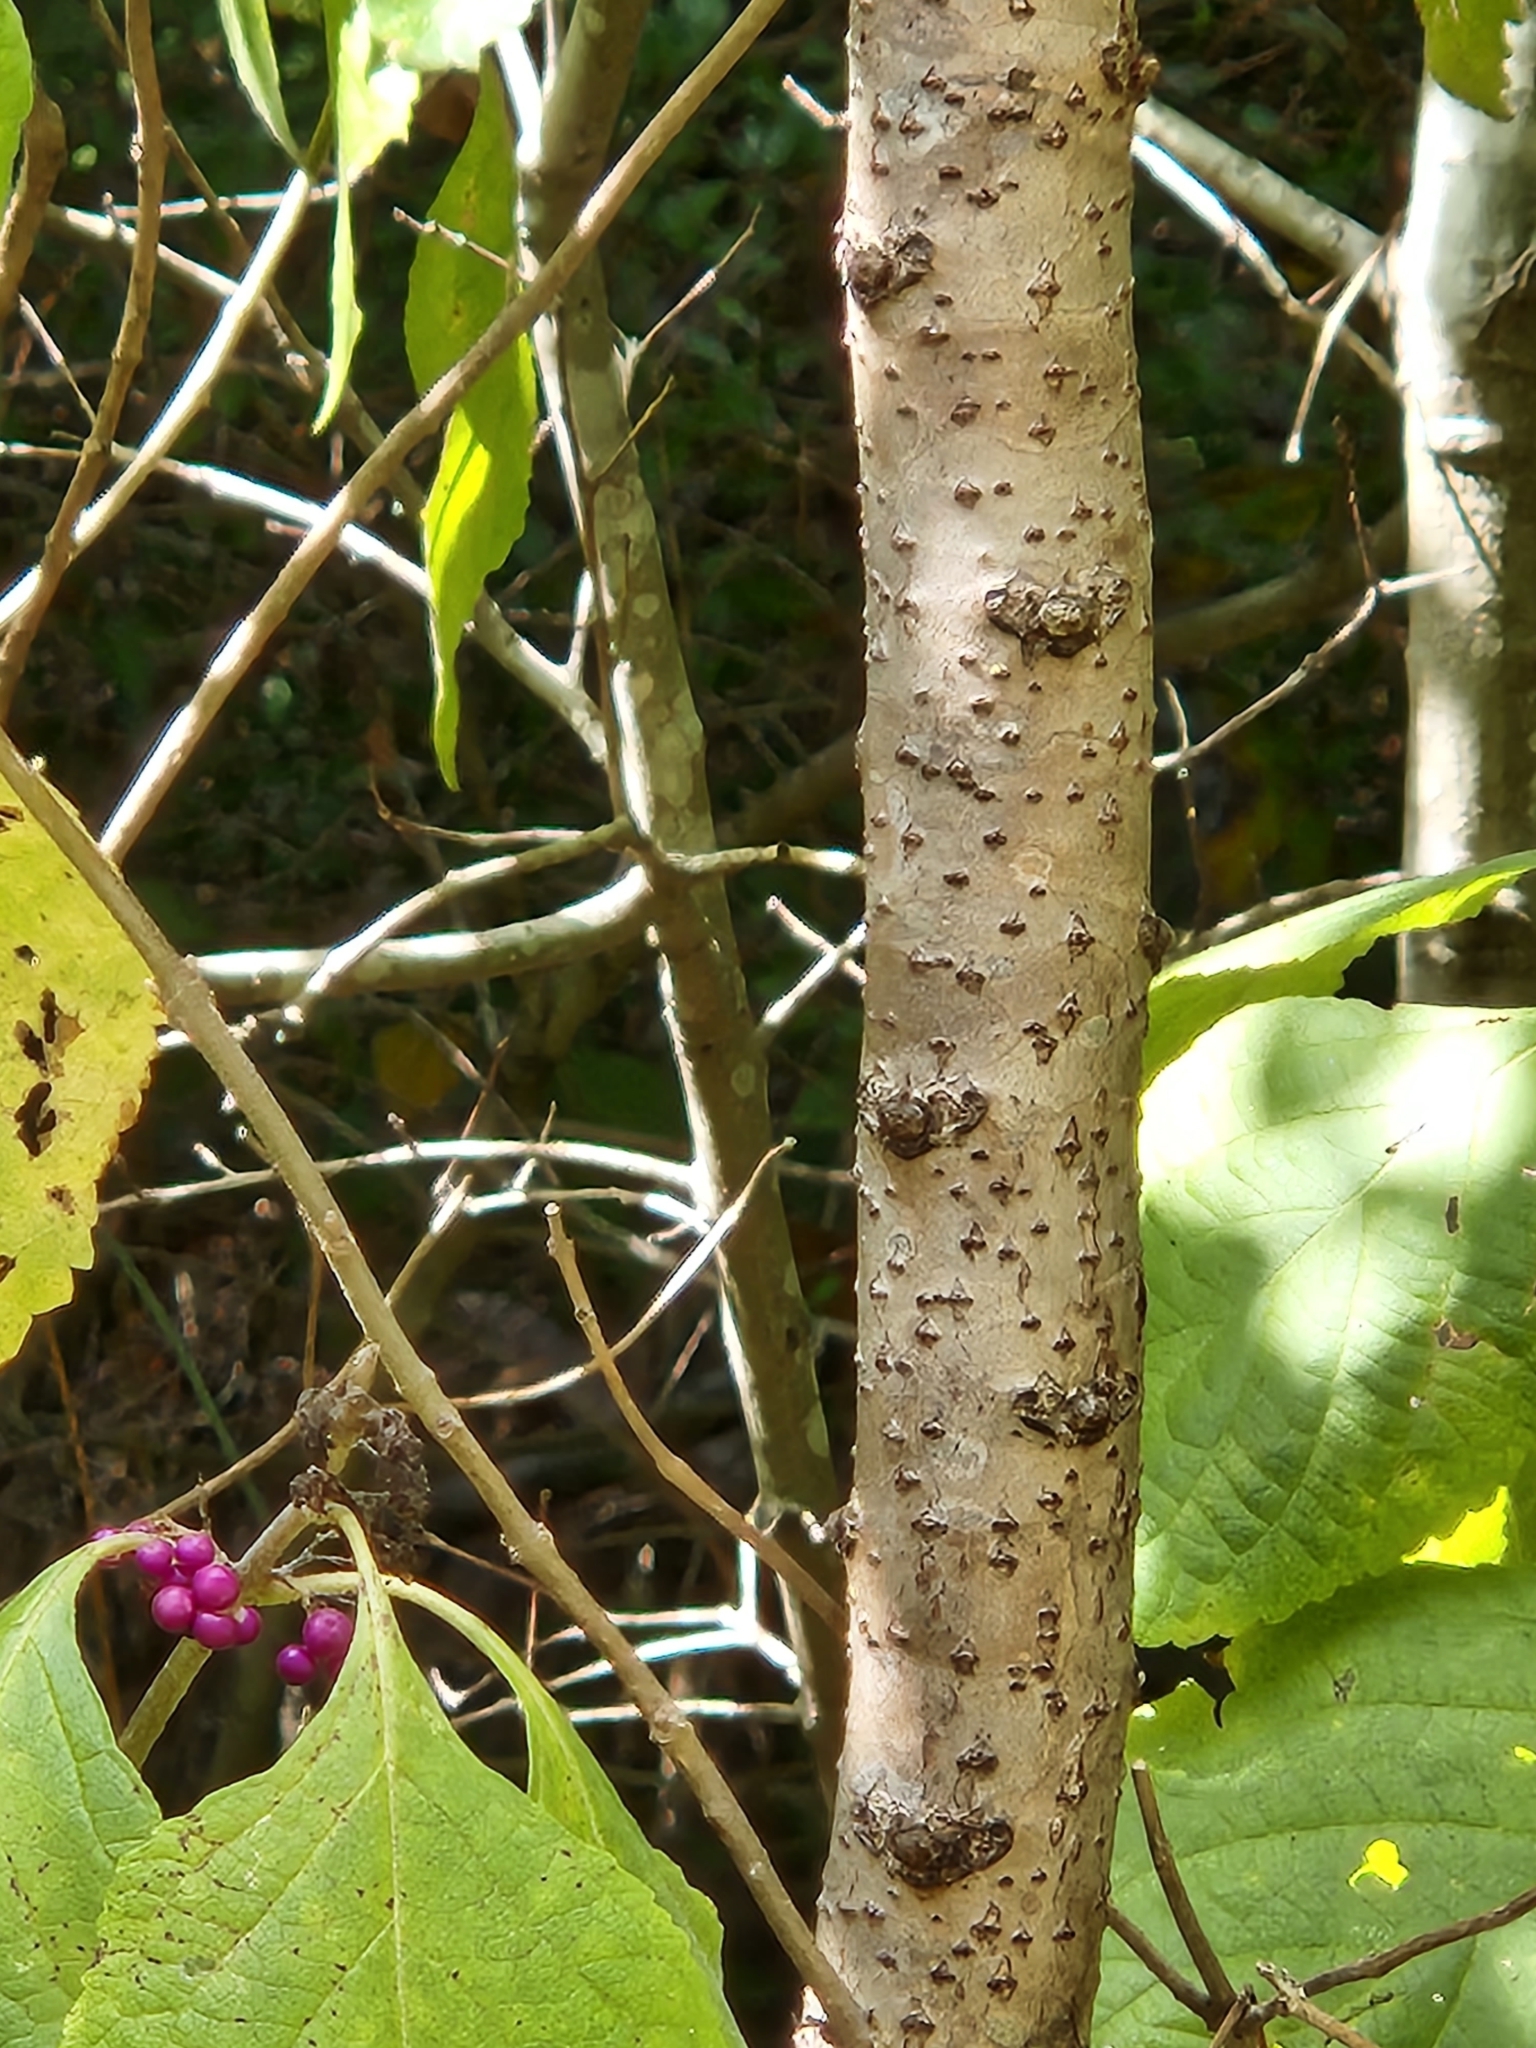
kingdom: Plantae
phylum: Tracheophyta
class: Magnoliopsida
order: Sapindales
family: Anacardiaceae
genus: Rhus
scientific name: Rhus glabra
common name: Scarlet sumac
